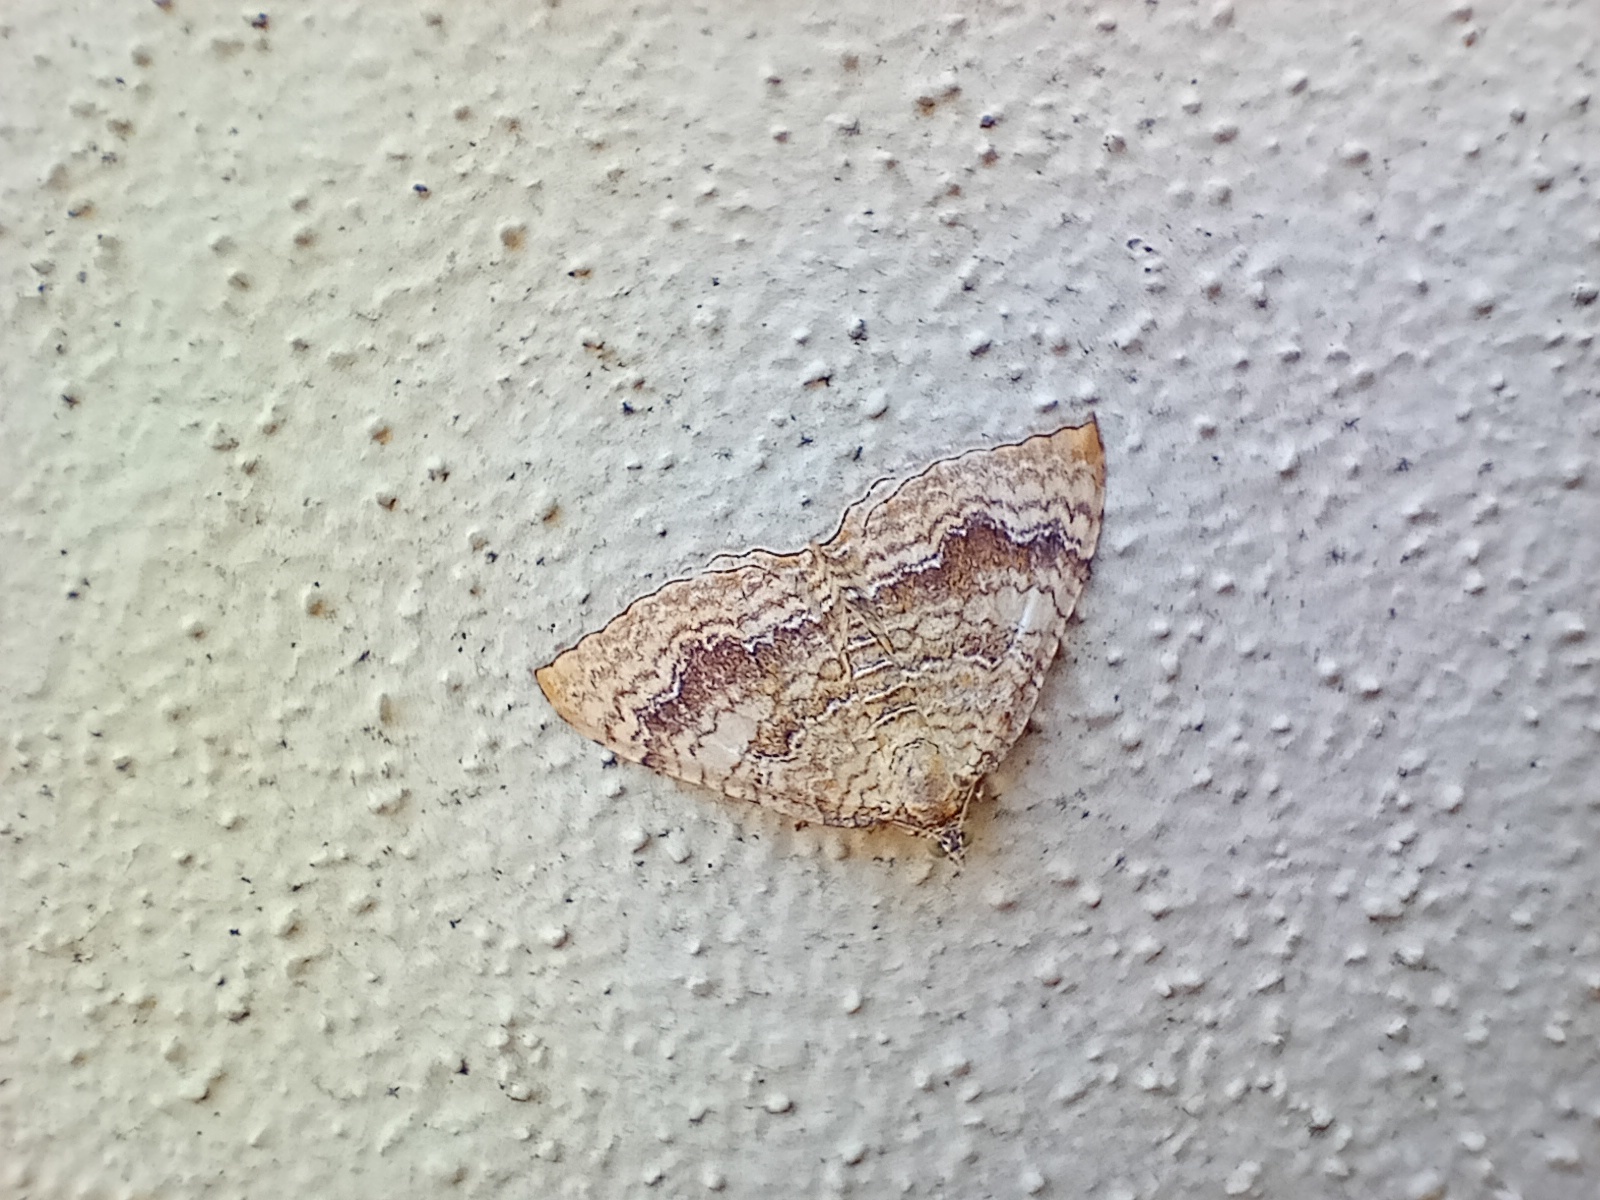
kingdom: Animalia
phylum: Arthropoda
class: Insecta
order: Lepidoptera
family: Geometridae
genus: Camptogramma
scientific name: Camptogramma bilineata
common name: Yellow shell
